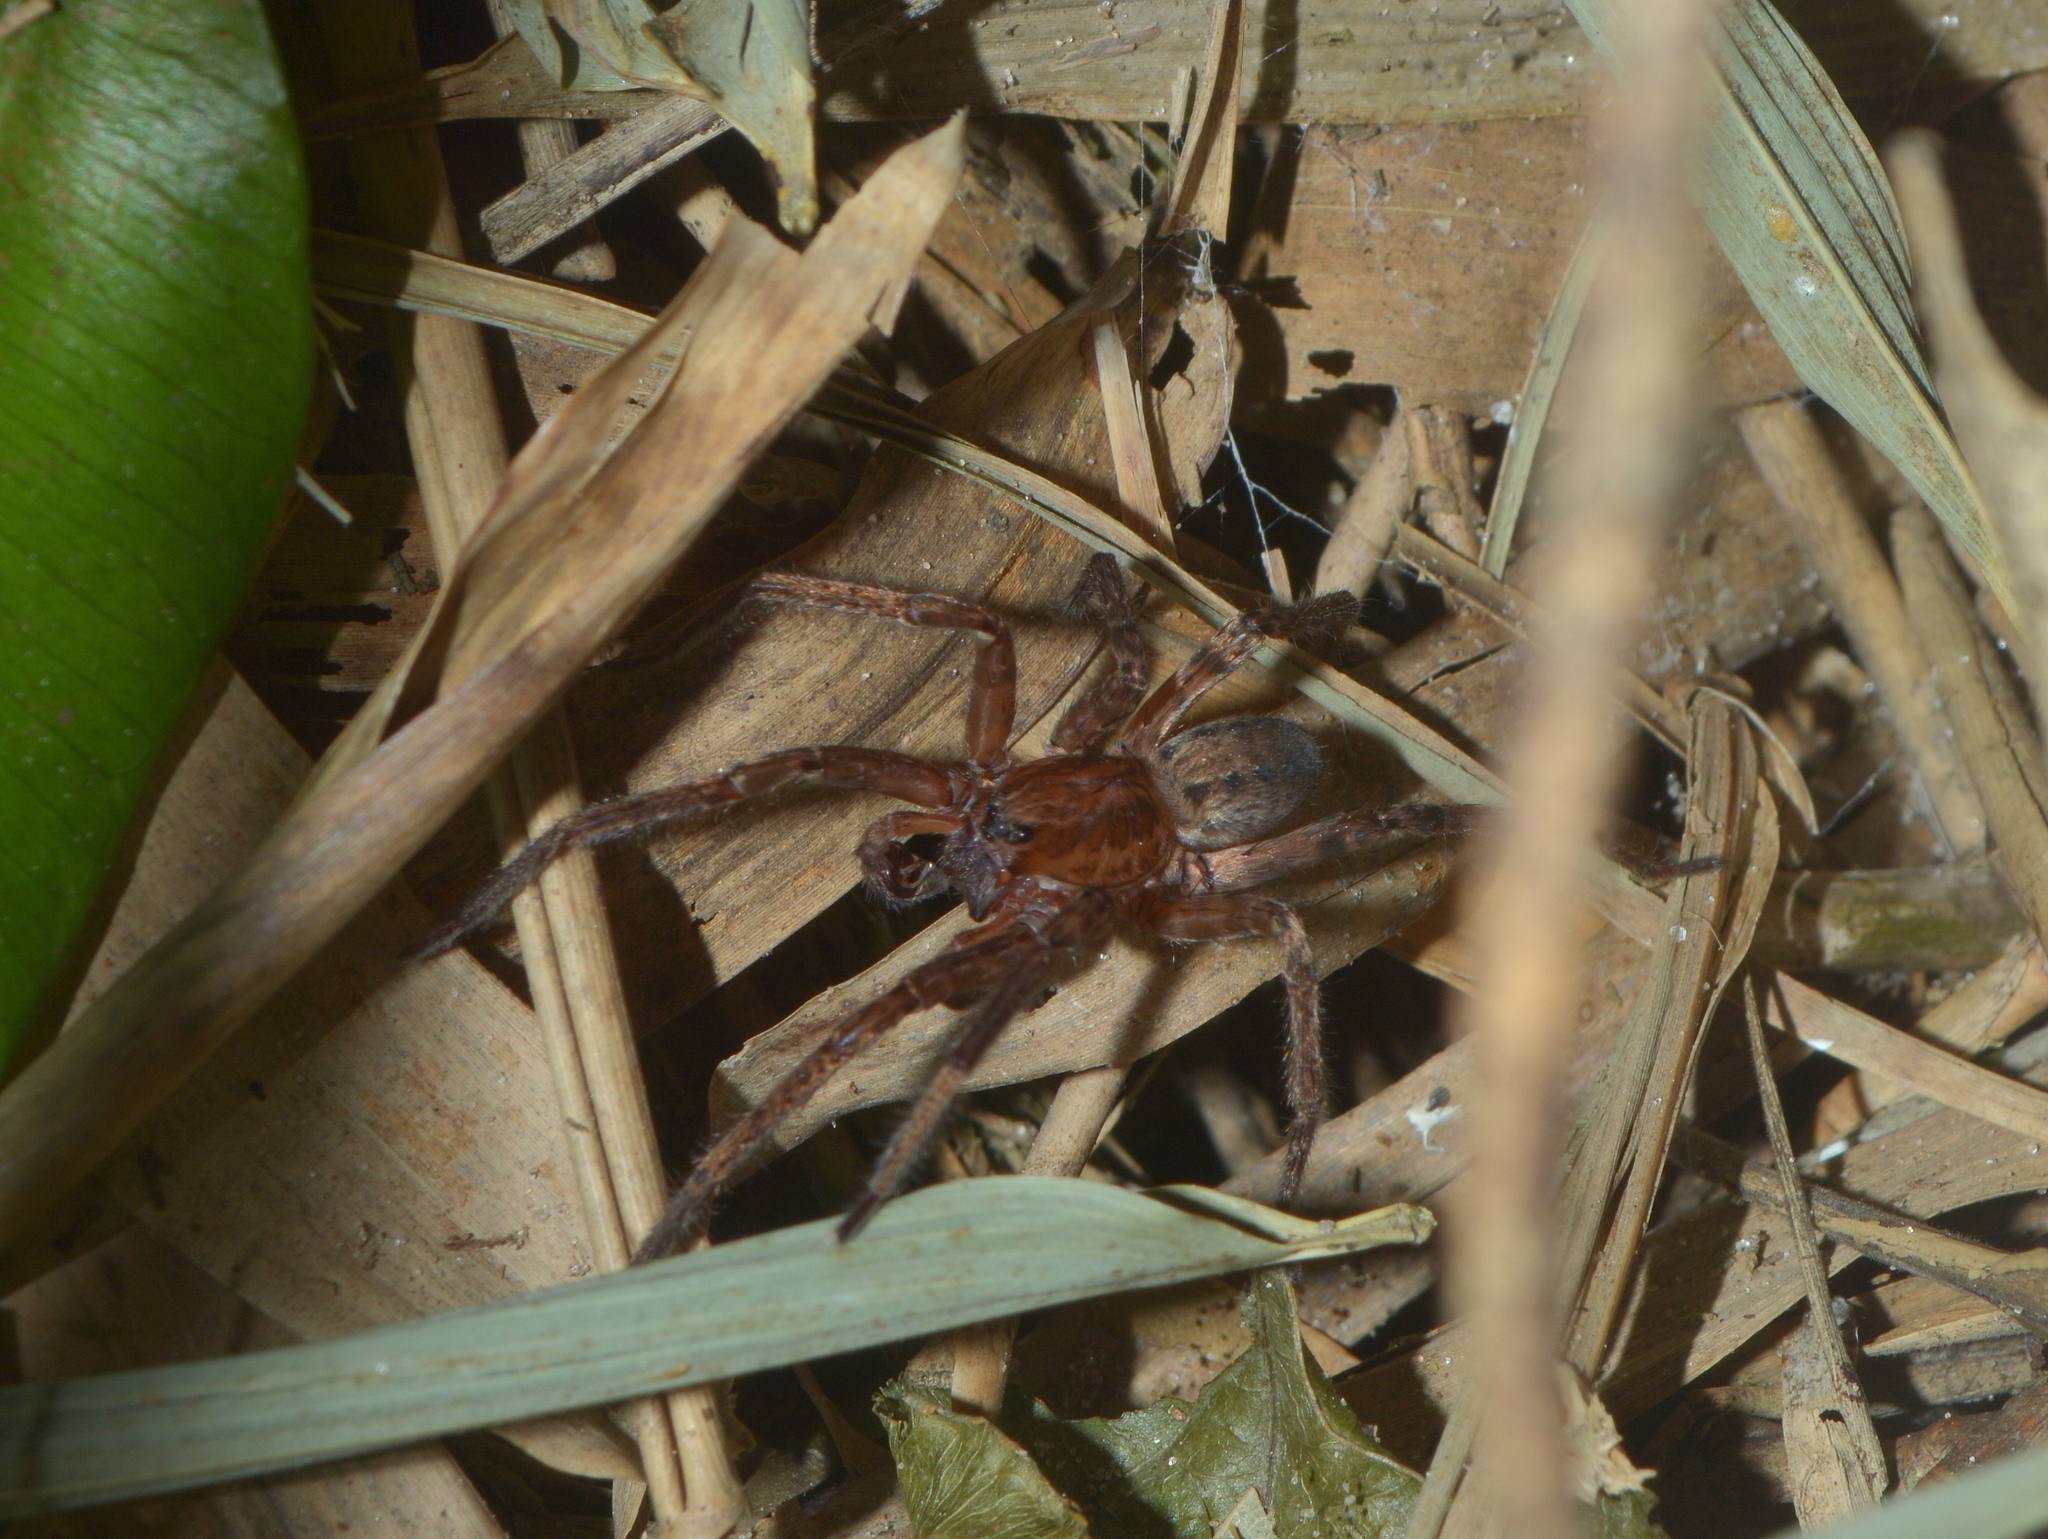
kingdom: Animalia
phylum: Arthropoda
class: Arachnida
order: Araneae
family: Ctenidae
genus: Asthenoctenus
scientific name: Asthenoctenus borellii
